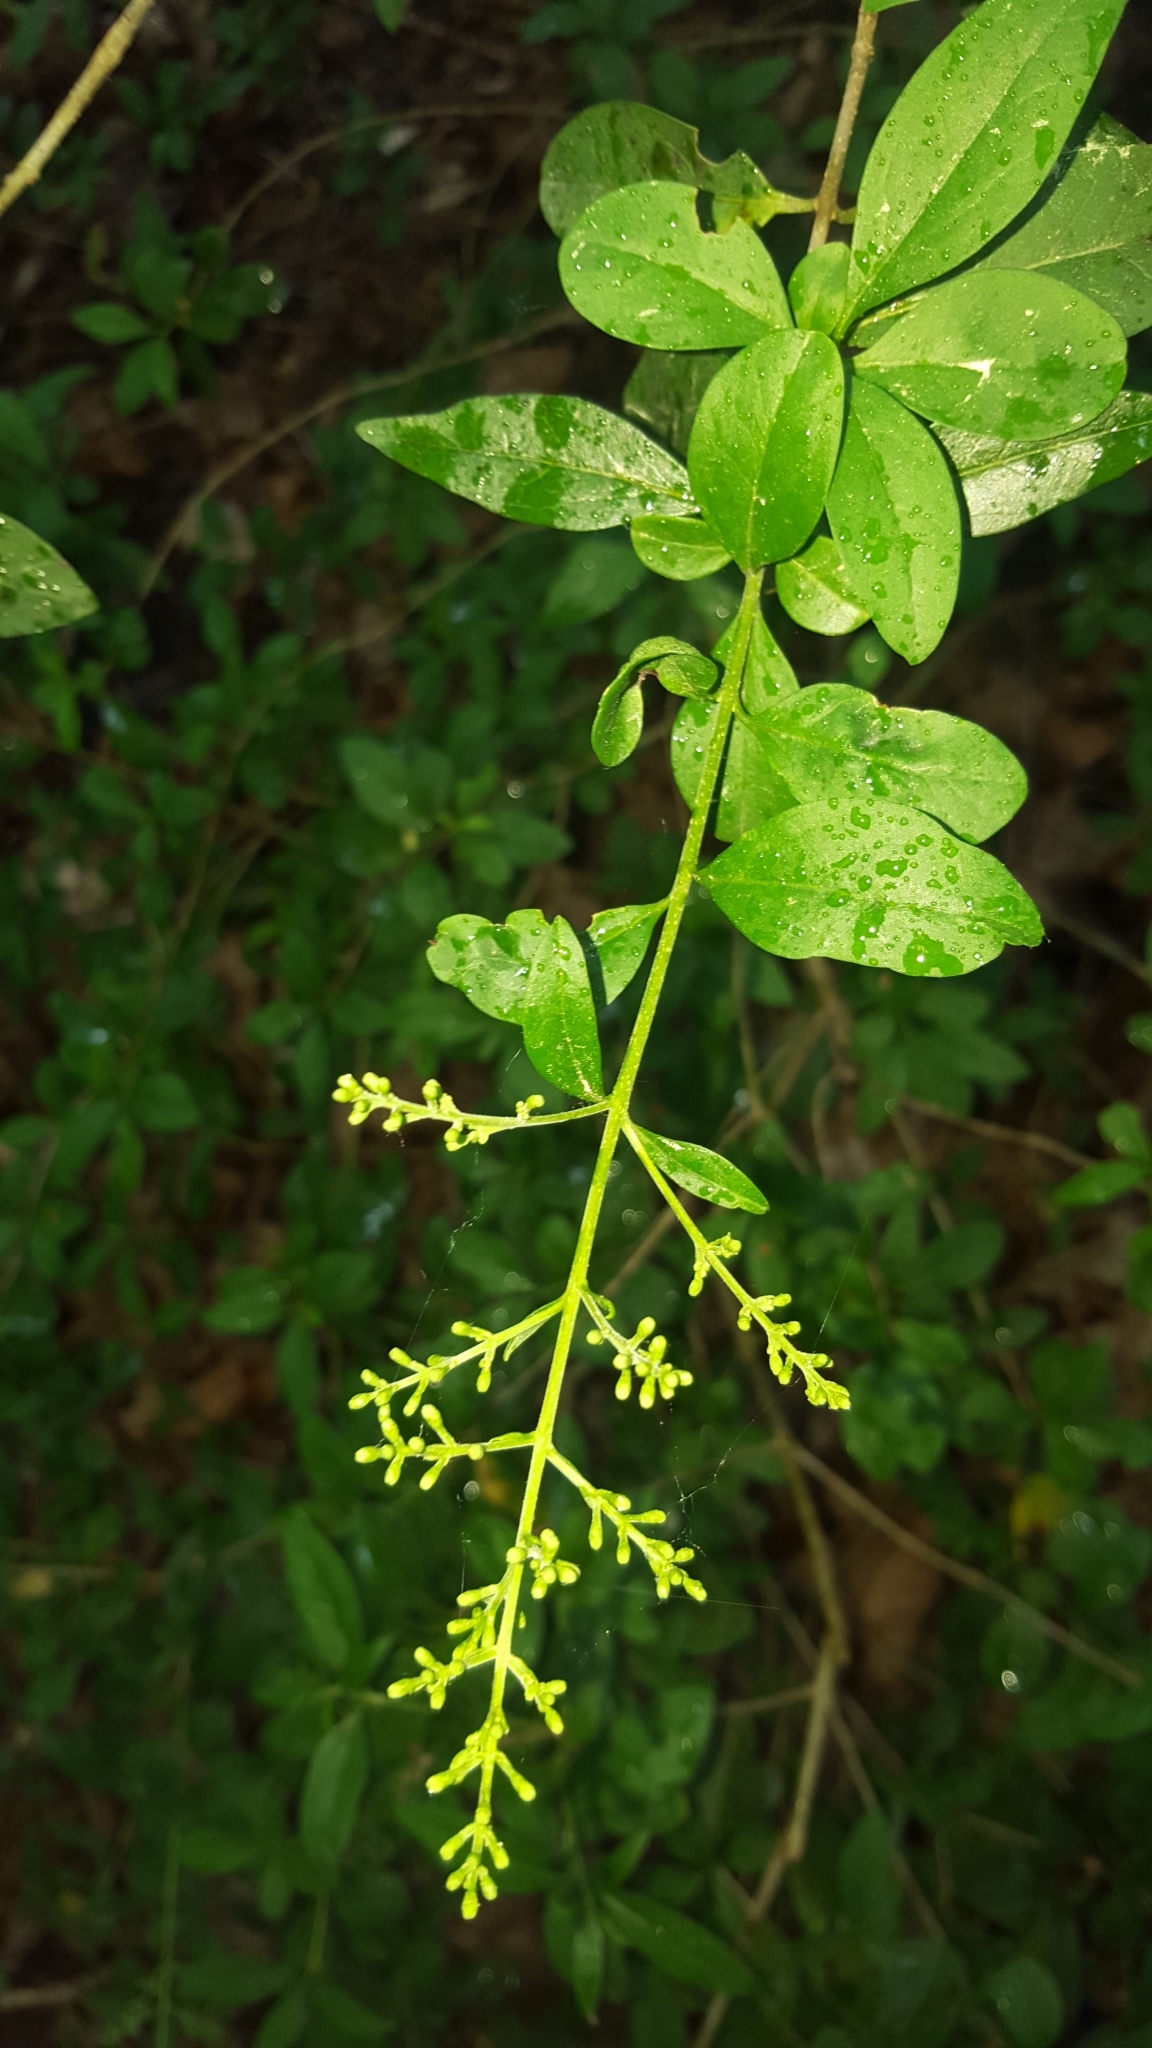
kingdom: Plantae
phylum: Tracheophyta
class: Magnoliopsida
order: Lamiales
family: Oleaceae
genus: Ligustrum
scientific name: Ligustrum vulgare
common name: Wild privet
